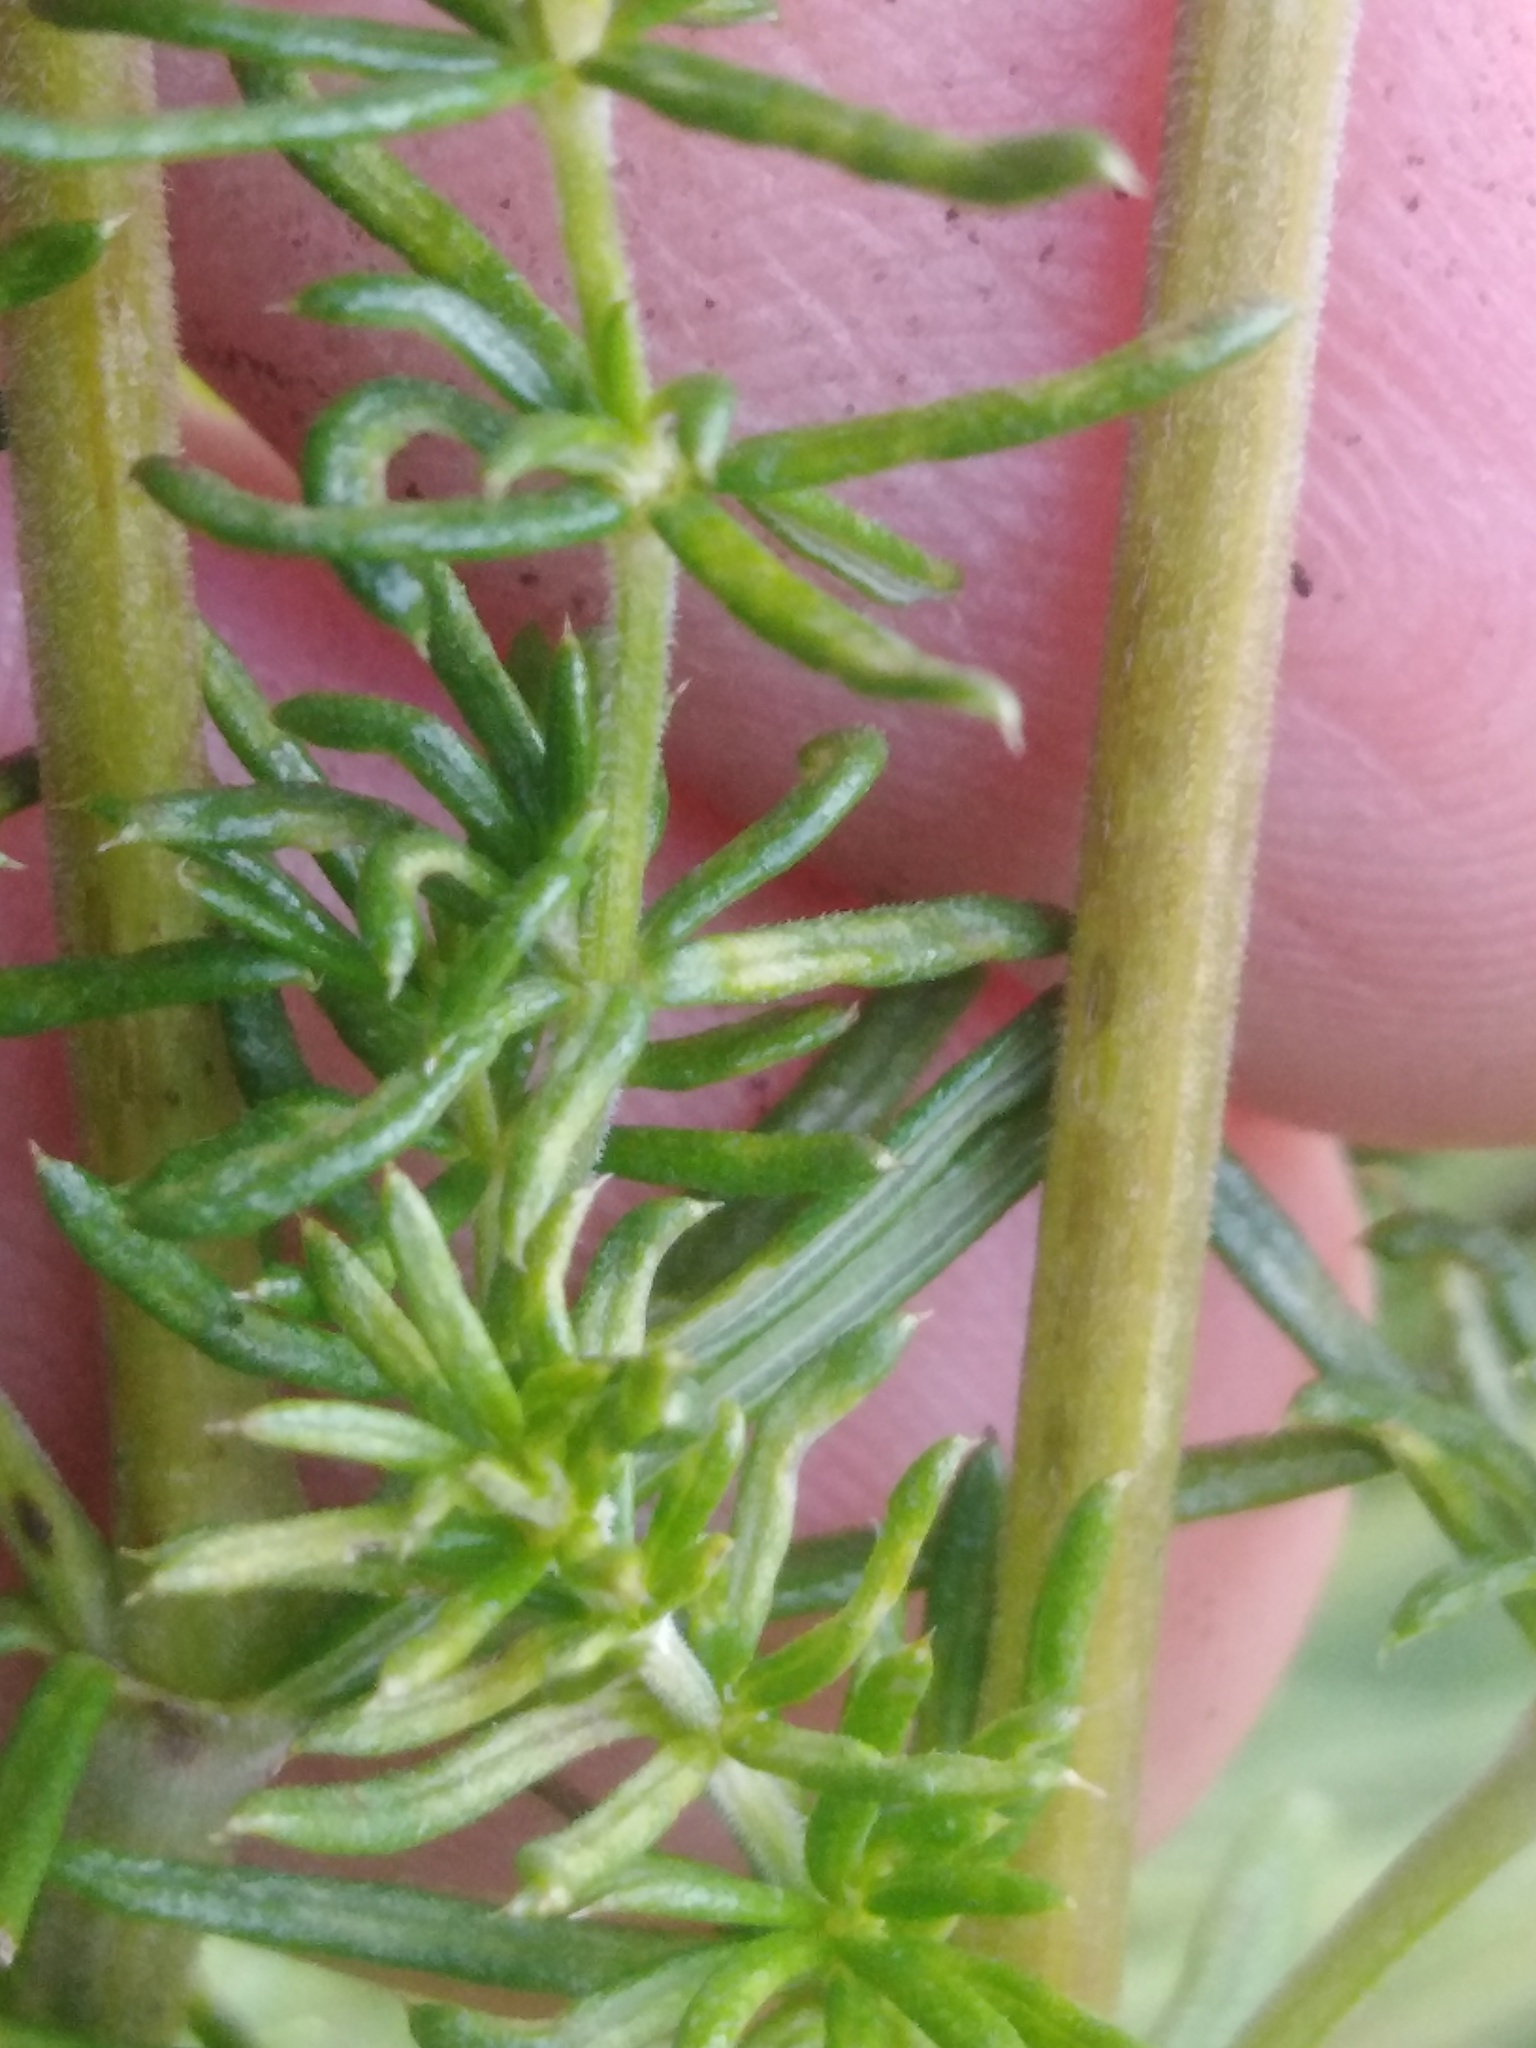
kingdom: Plantae
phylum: Tracheophyta
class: Magnoliopsida
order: Gentianales
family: Rubiaceae
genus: Galium
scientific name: Galium verum
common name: Lady's bedstraw
